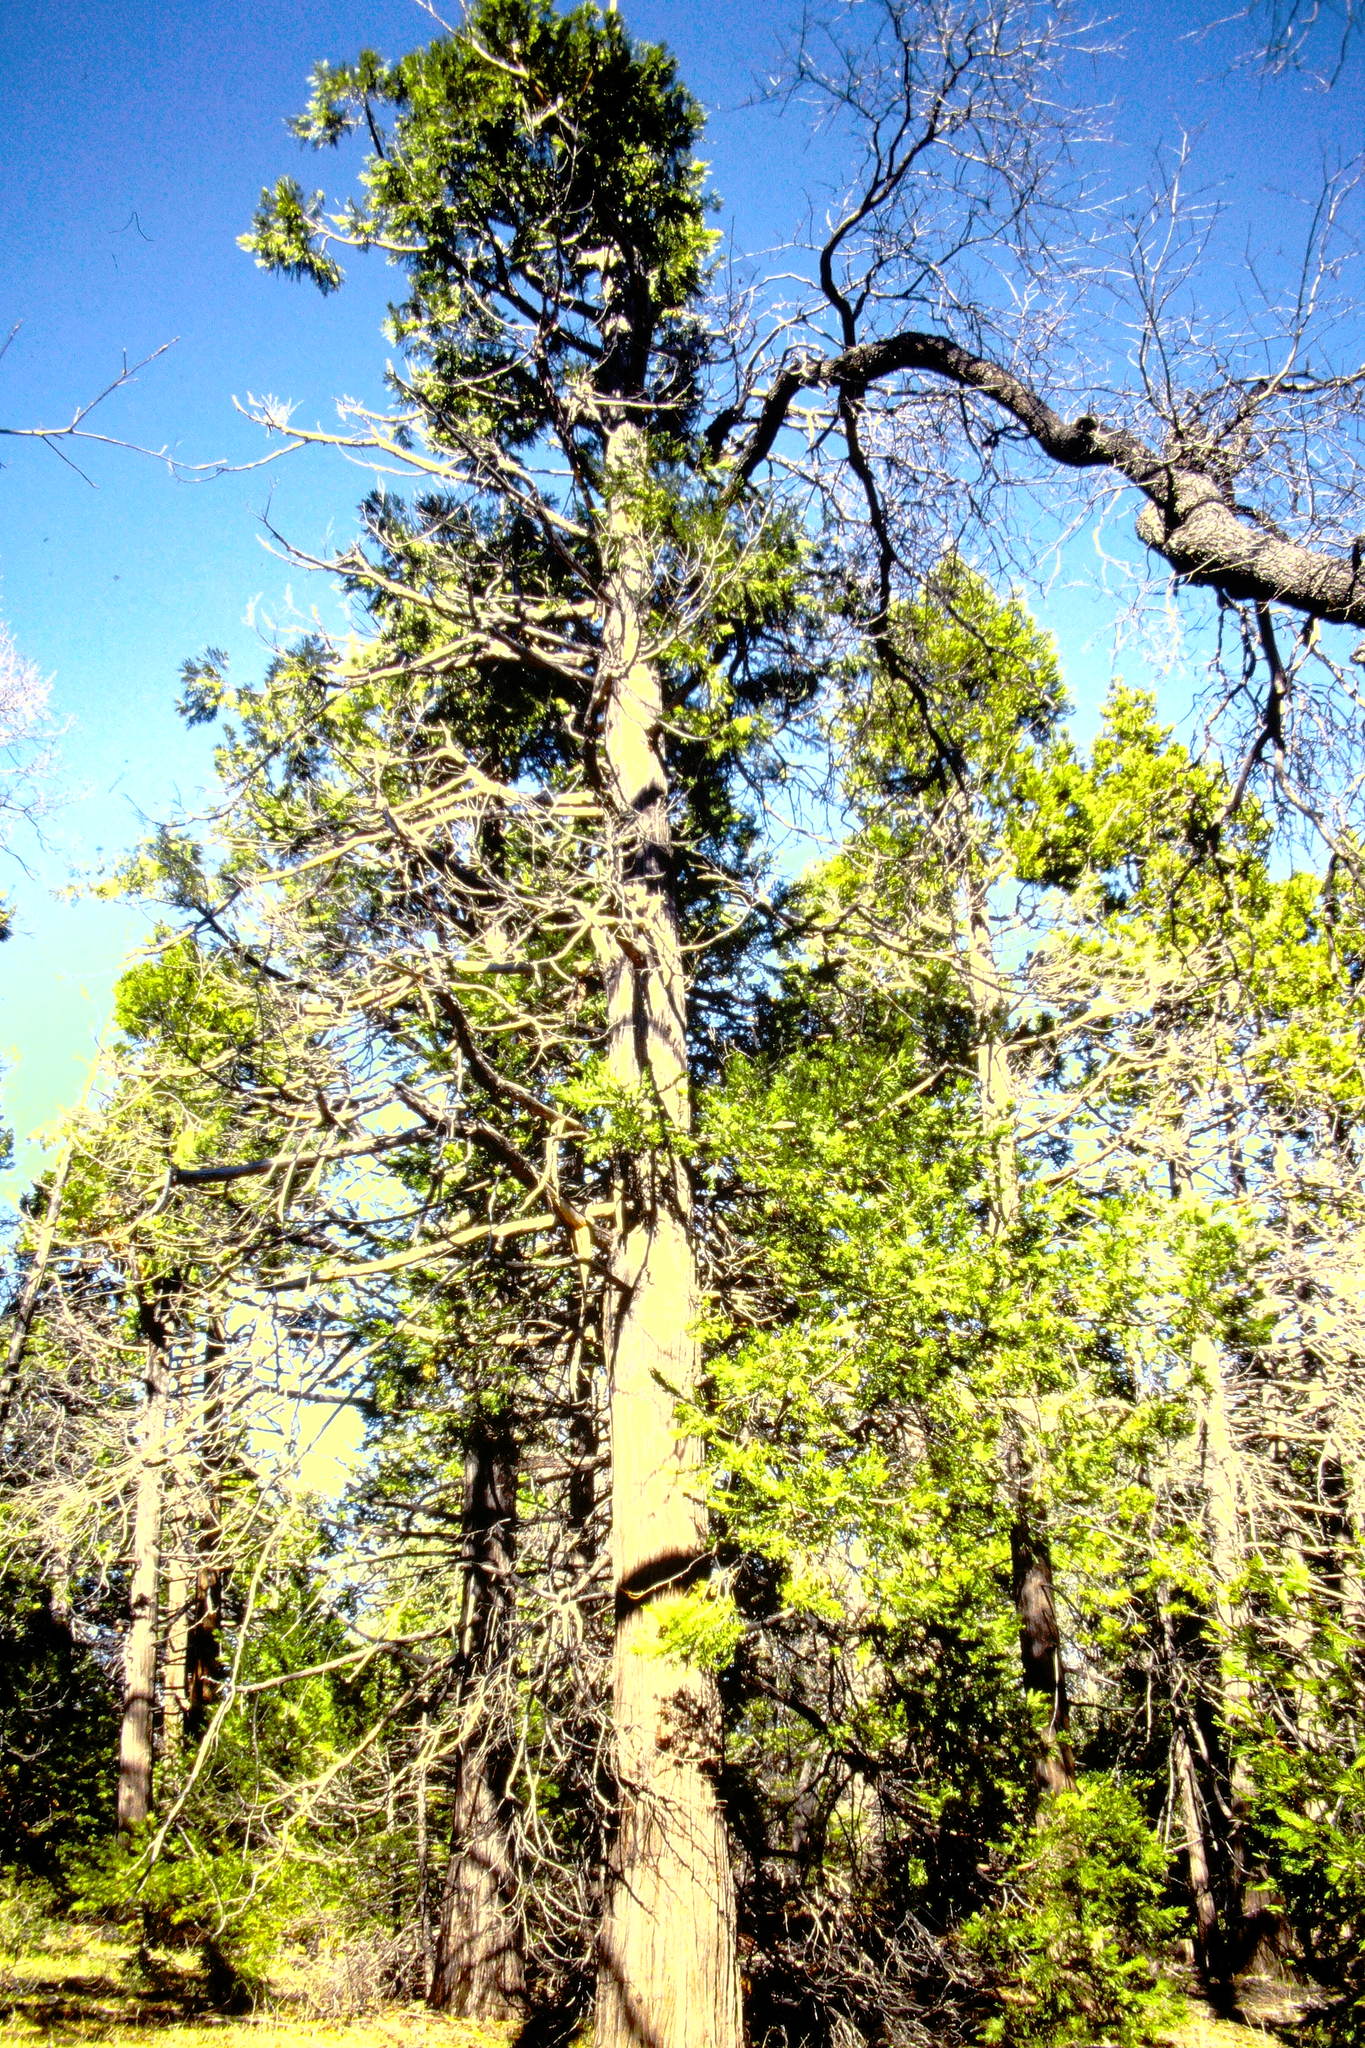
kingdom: Plantae
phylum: Tracheophyta
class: Pinopsida
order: Pinales
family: Cupressaceae
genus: Calocedrus
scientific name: Calocedrus decurrens
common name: Californian incense-cedar
